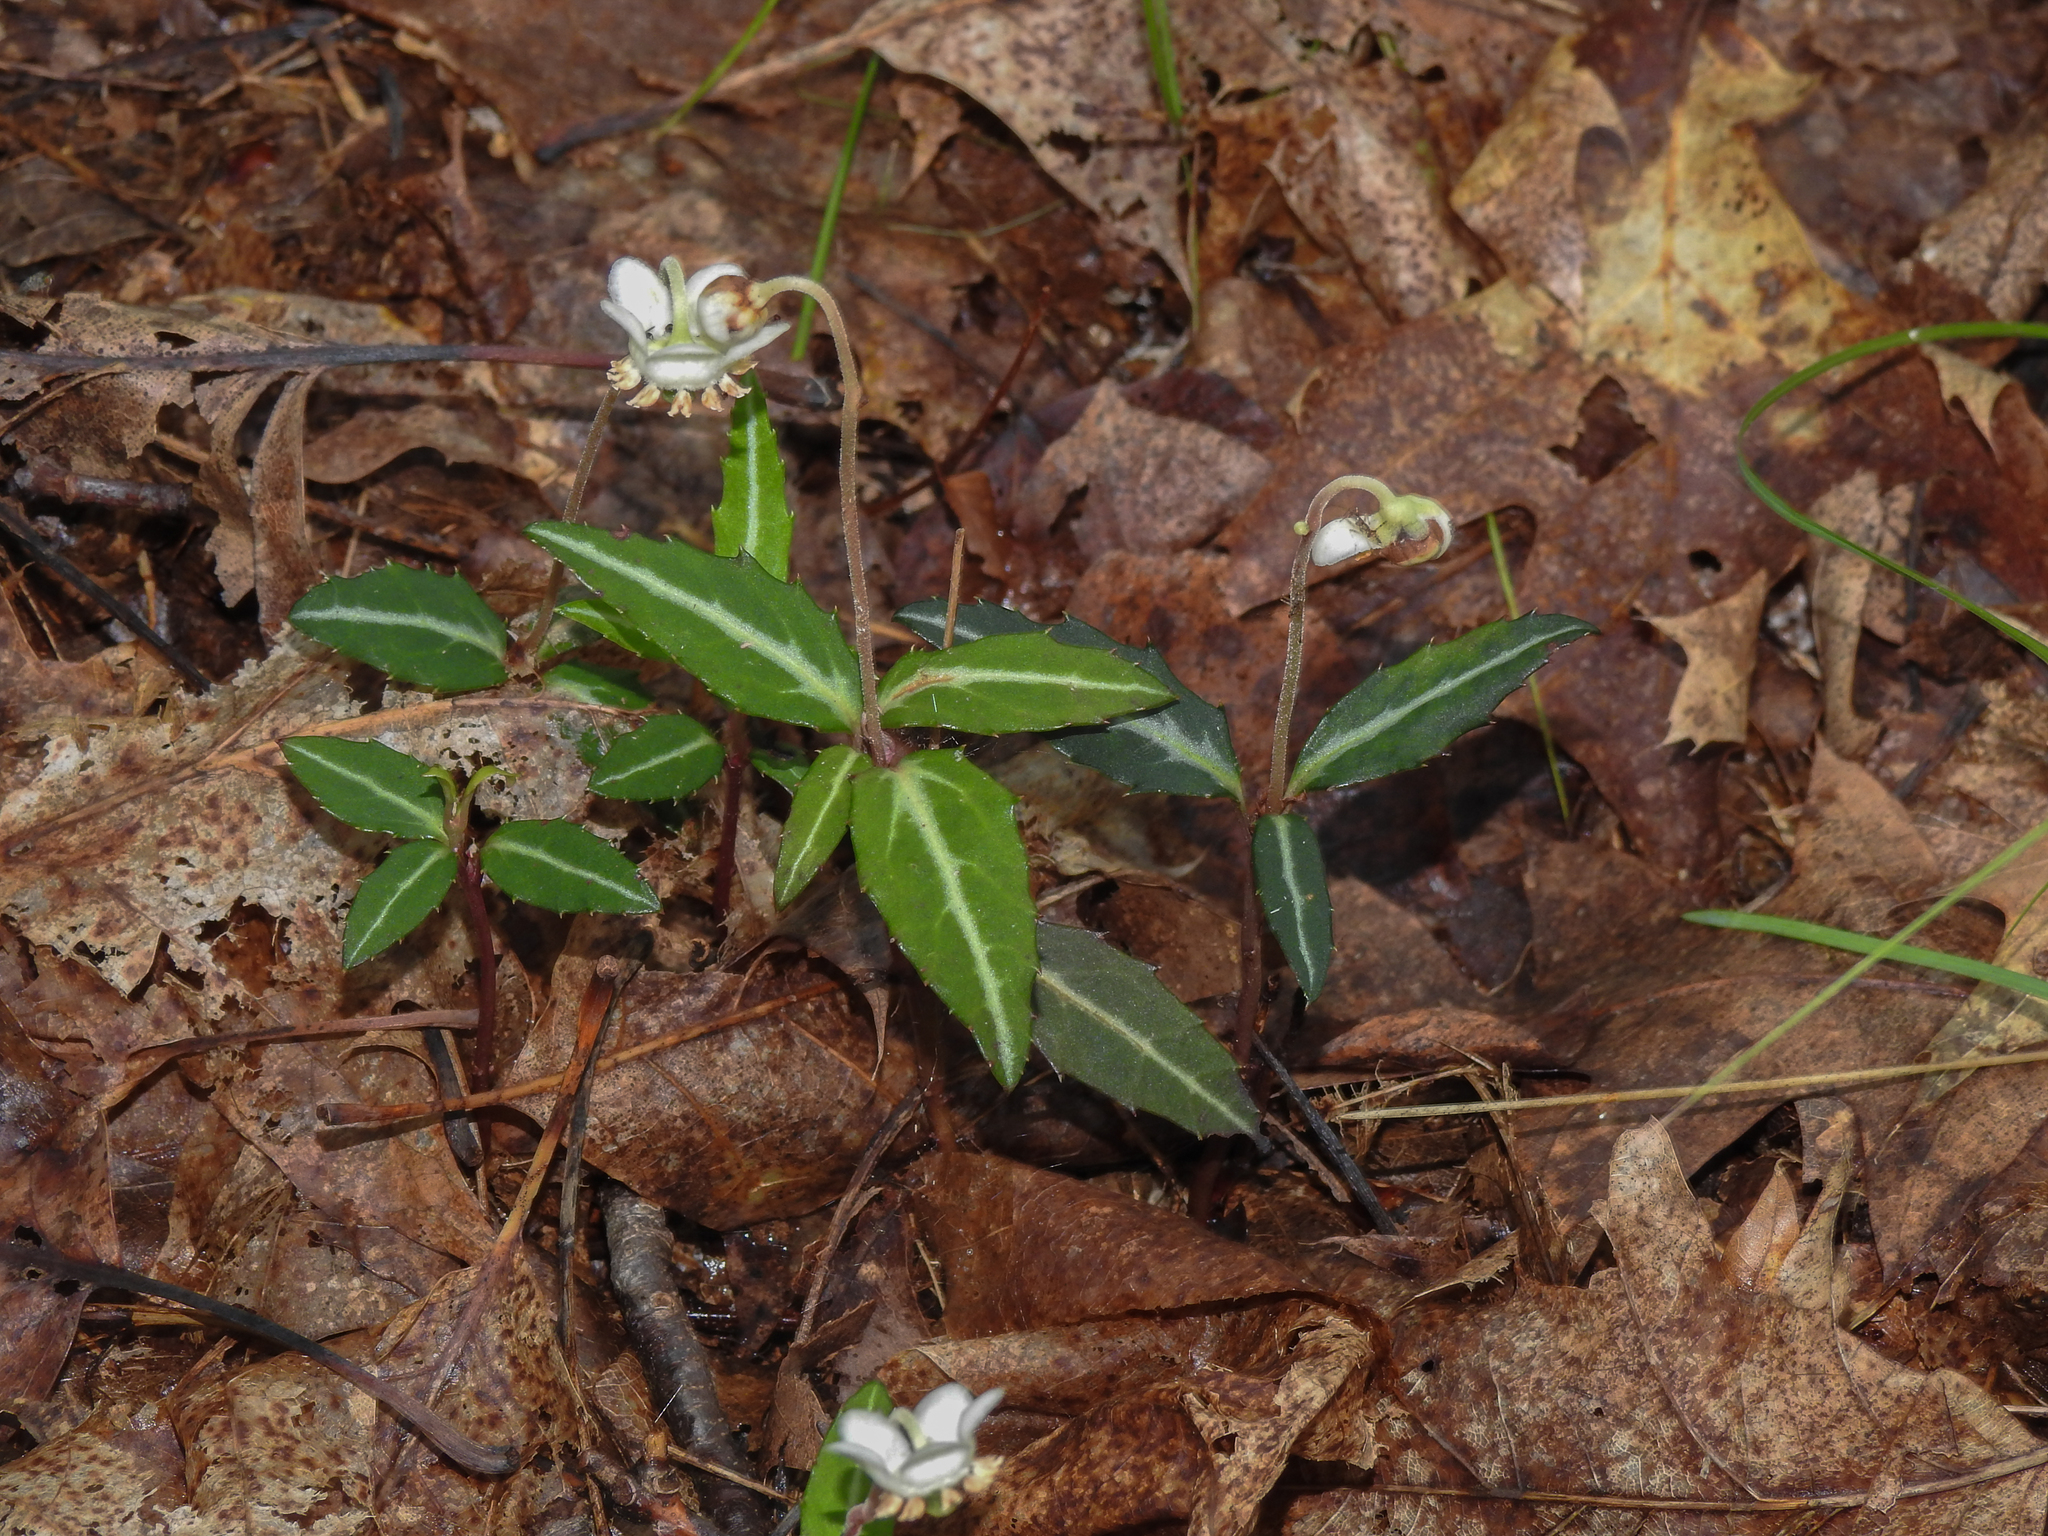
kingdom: Plantae
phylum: Tracheophyta
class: Magnoliopsida
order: Ericales
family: Ericaceae
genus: Chimaphila
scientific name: Chimaphila maculata
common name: Spotted pipsissewa
